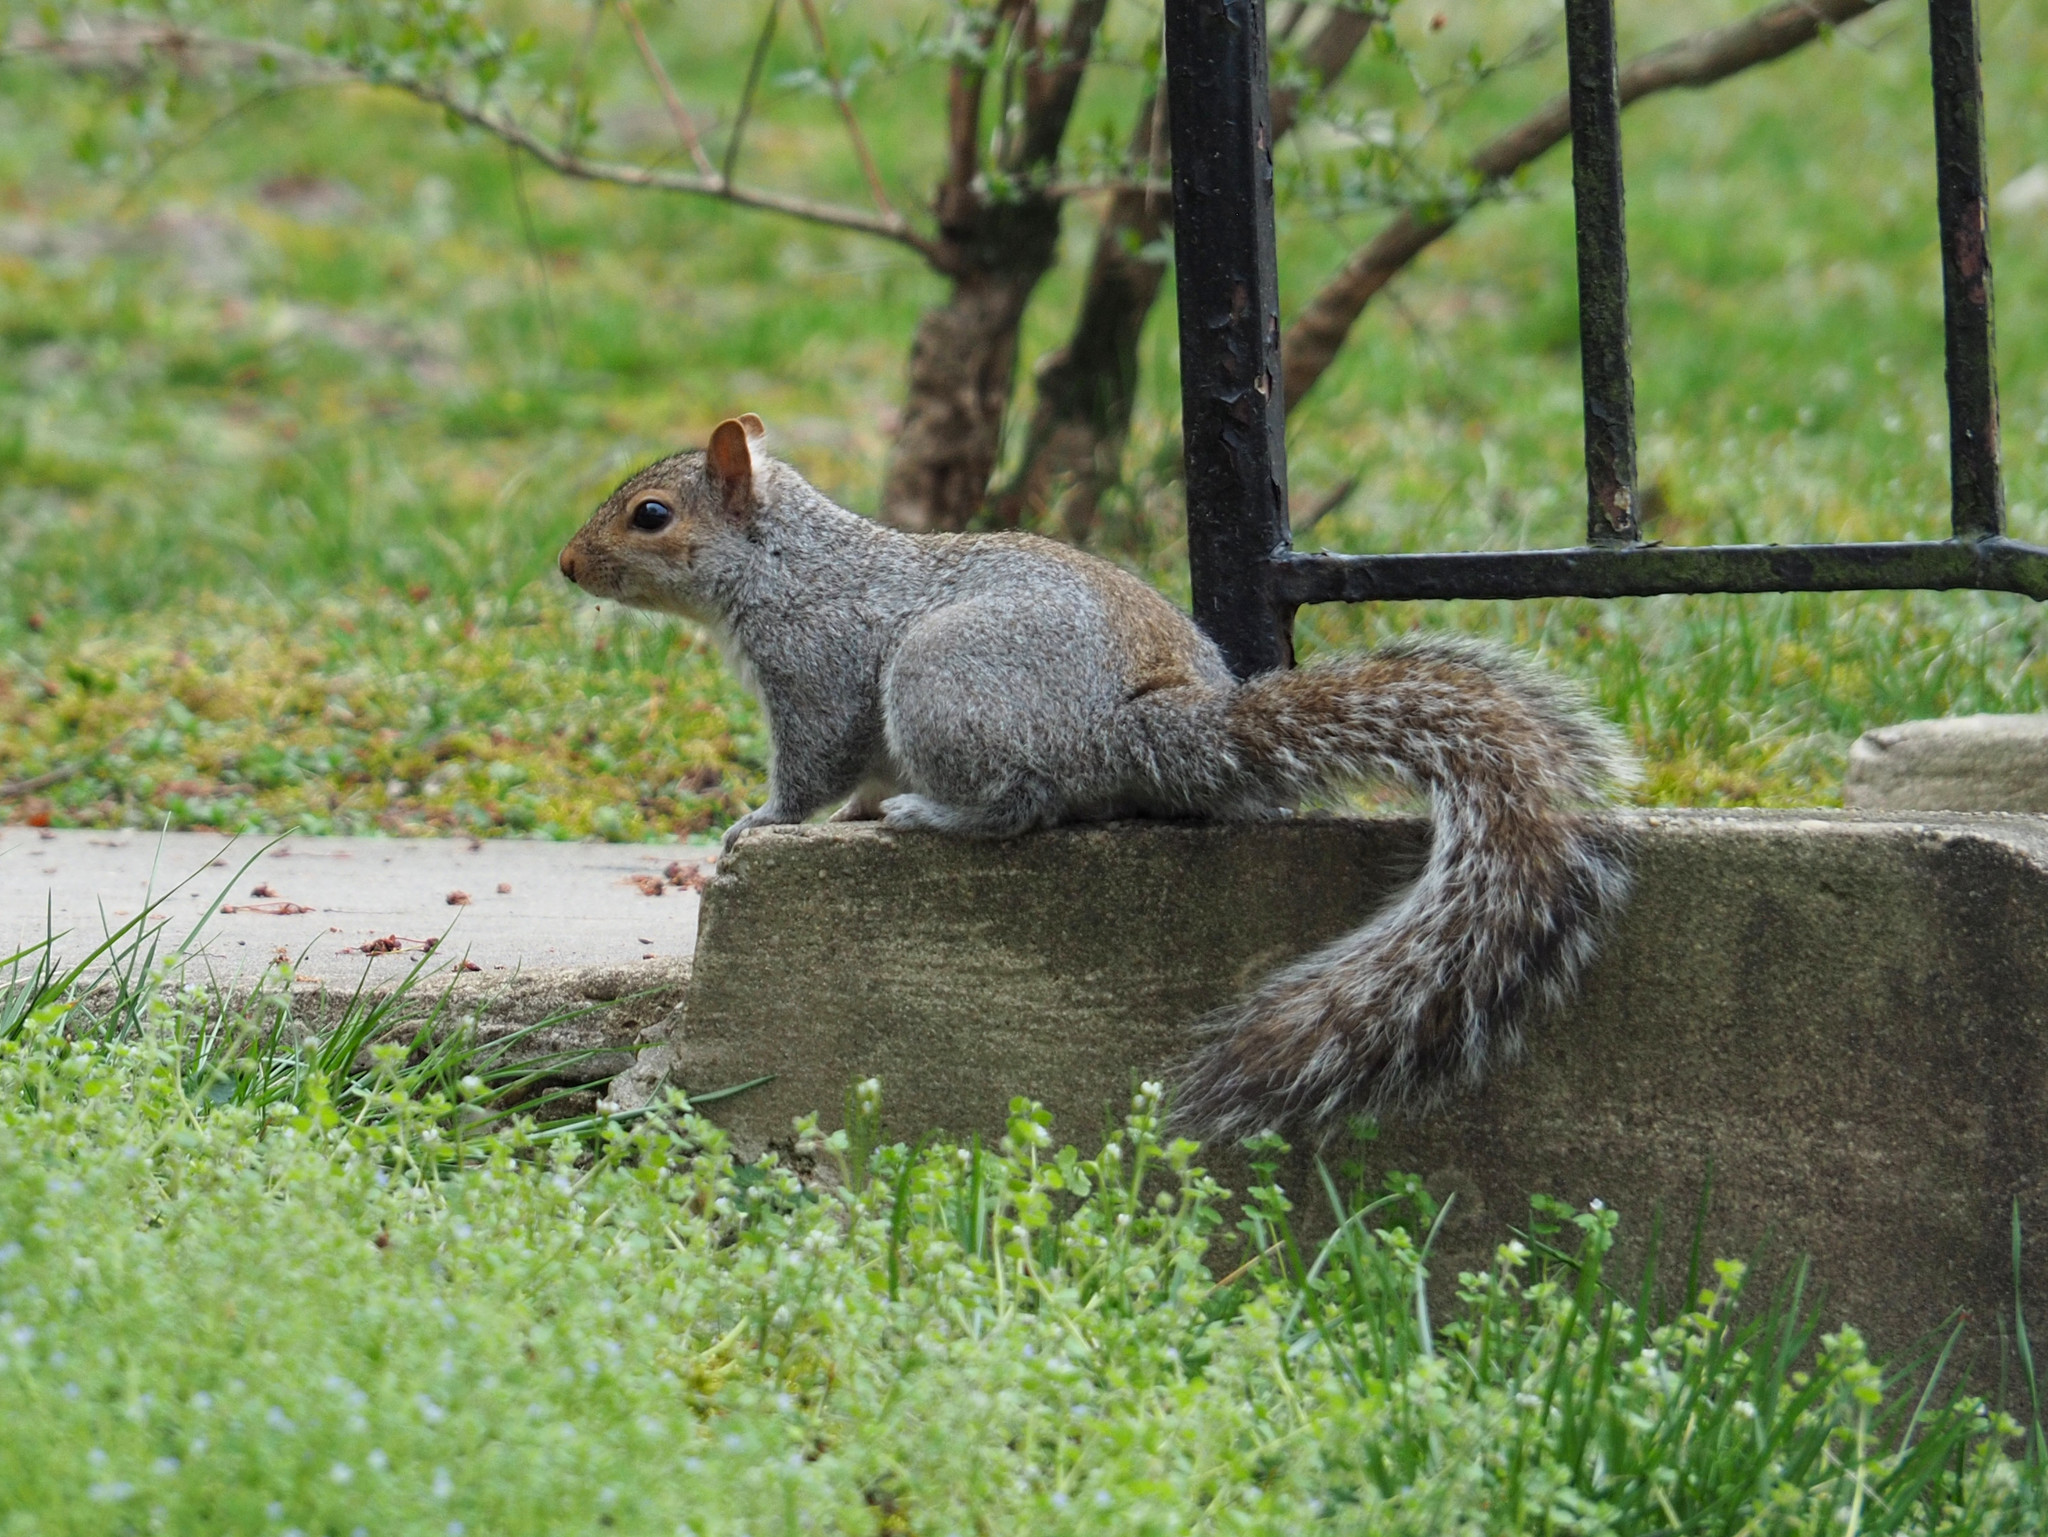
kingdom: Animalia
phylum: Chordata
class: Mammalia
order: Rodentia
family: Sciuridae
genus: Sciurus
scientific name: Sciurus carolinensis
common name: Eastern gray squirrel
